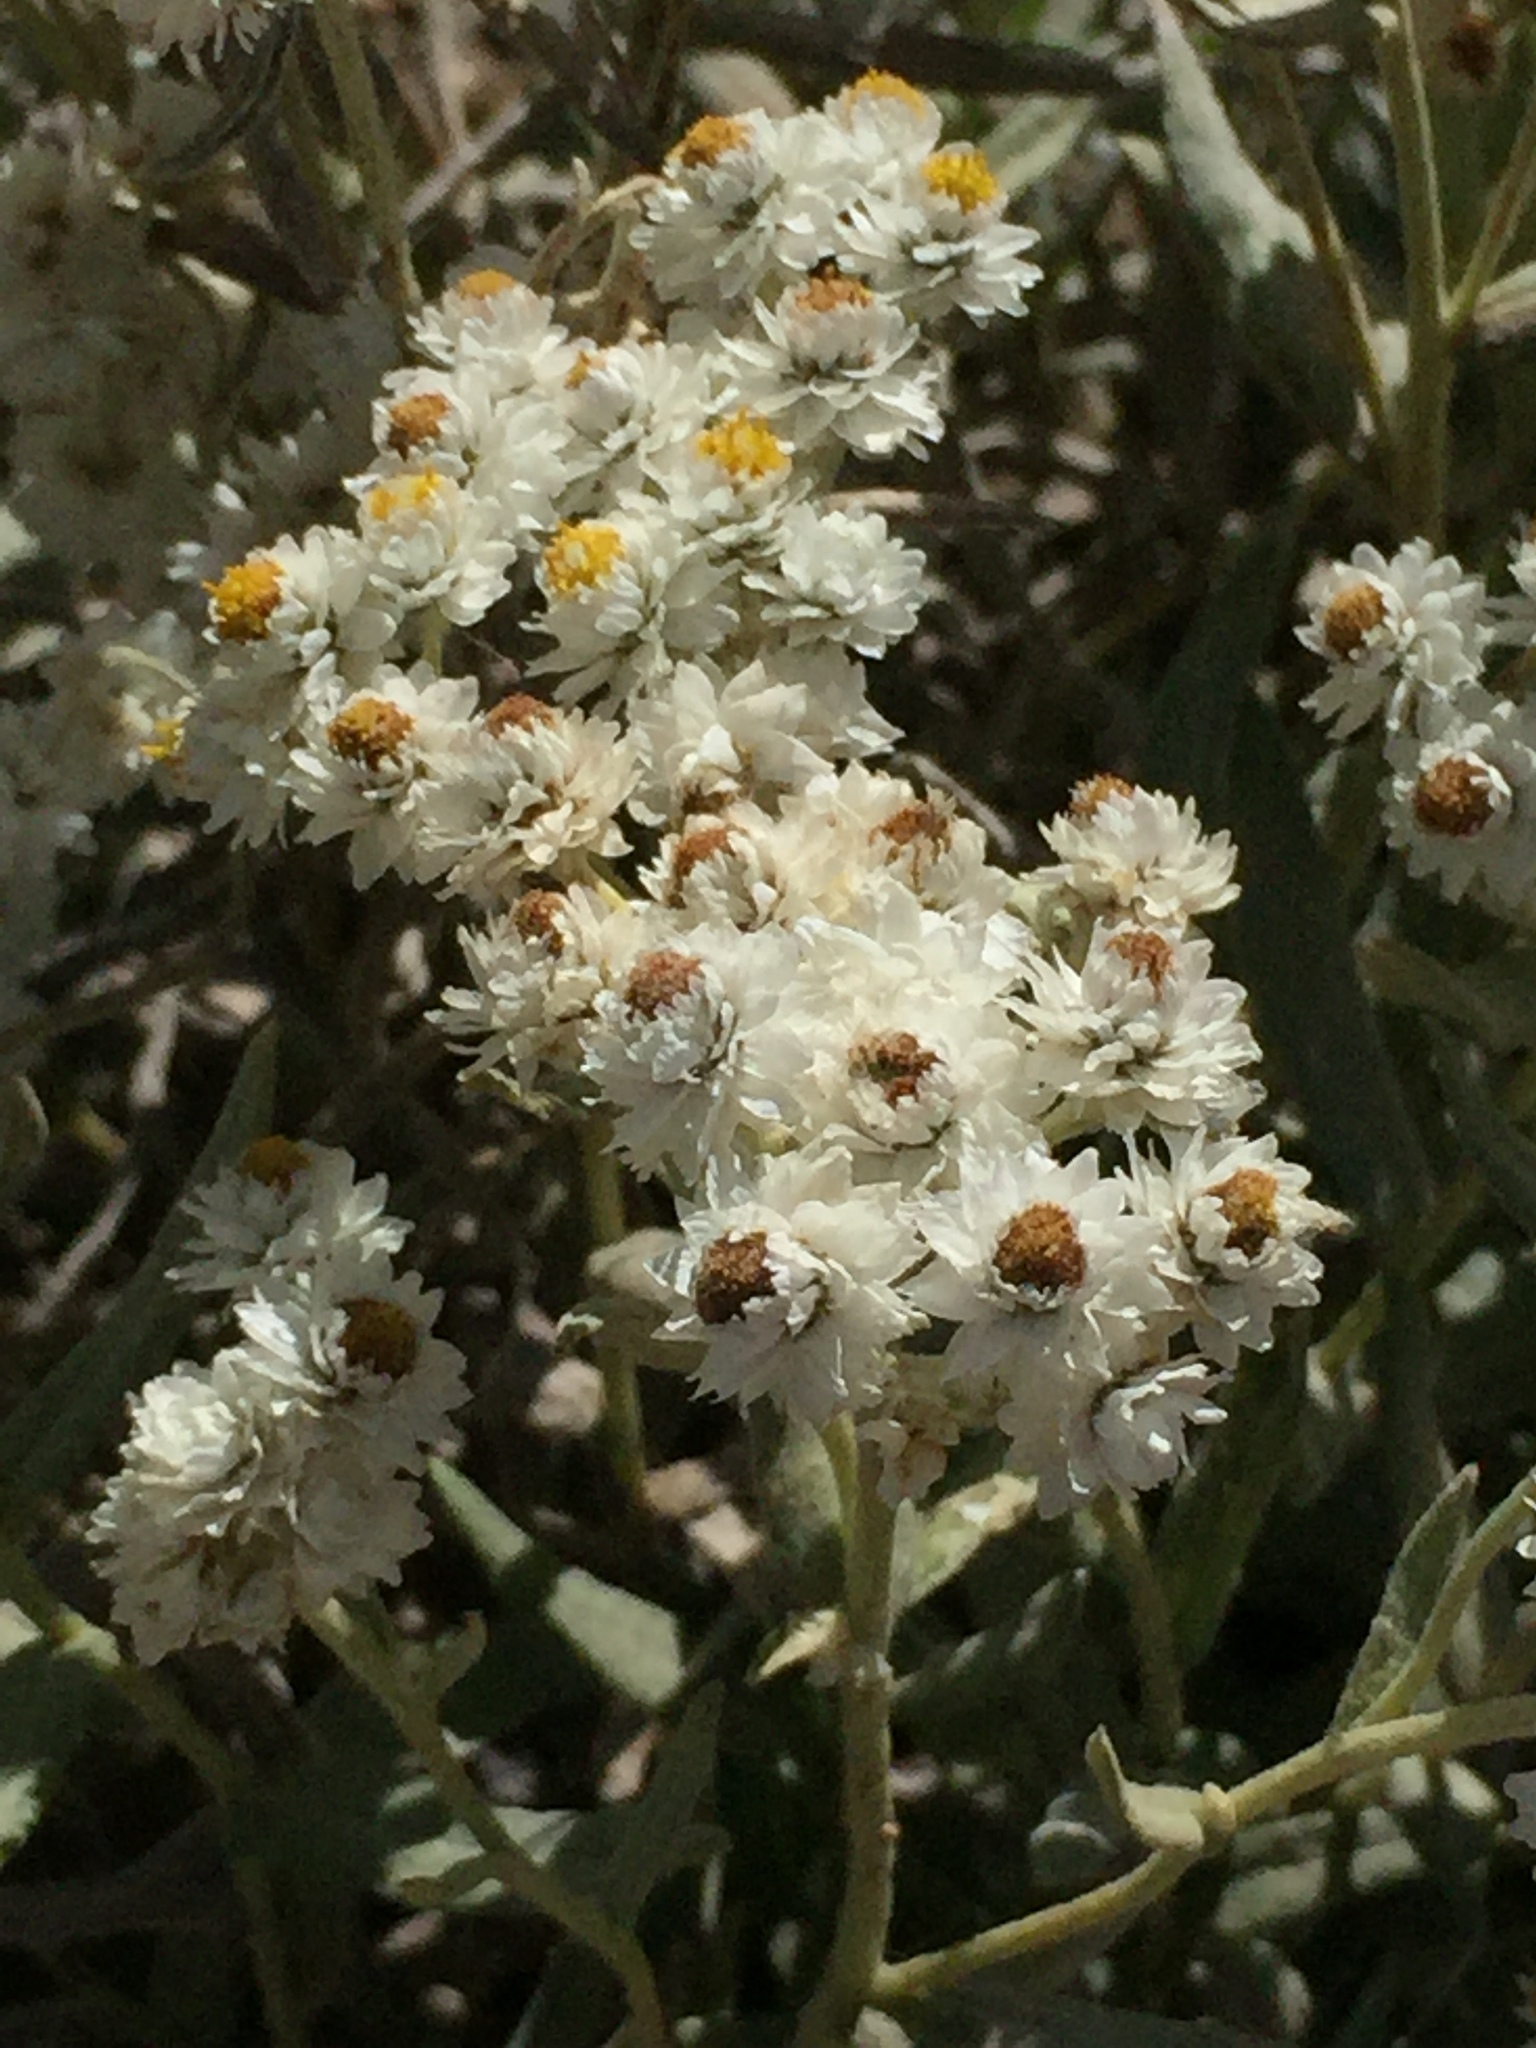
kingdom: Plantae
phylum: Tracheophyta
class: Magnoliopsida
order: Asterales
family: Asteraceae
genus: Anaphalis
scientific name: Anaphalis margaritacea
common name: Pearly everlasting
